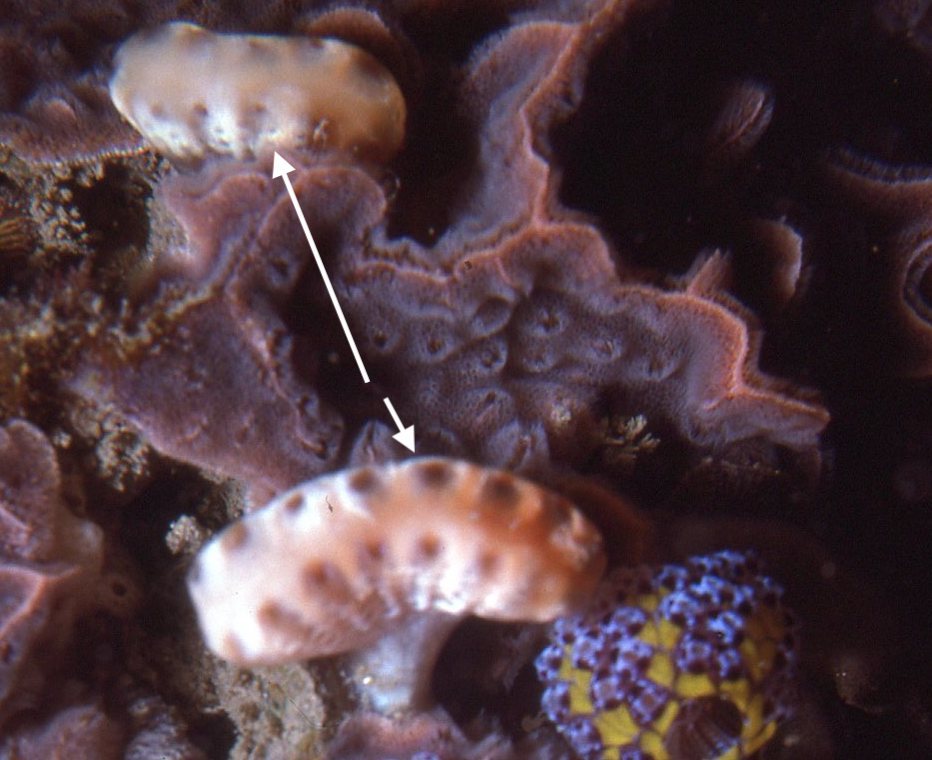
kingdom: Animalia
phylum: Chordata
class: Ascidiacea
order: Aplousobranchia
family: Holozoidae
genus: Sycozoa
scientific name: Sycozoa cerebriformis
